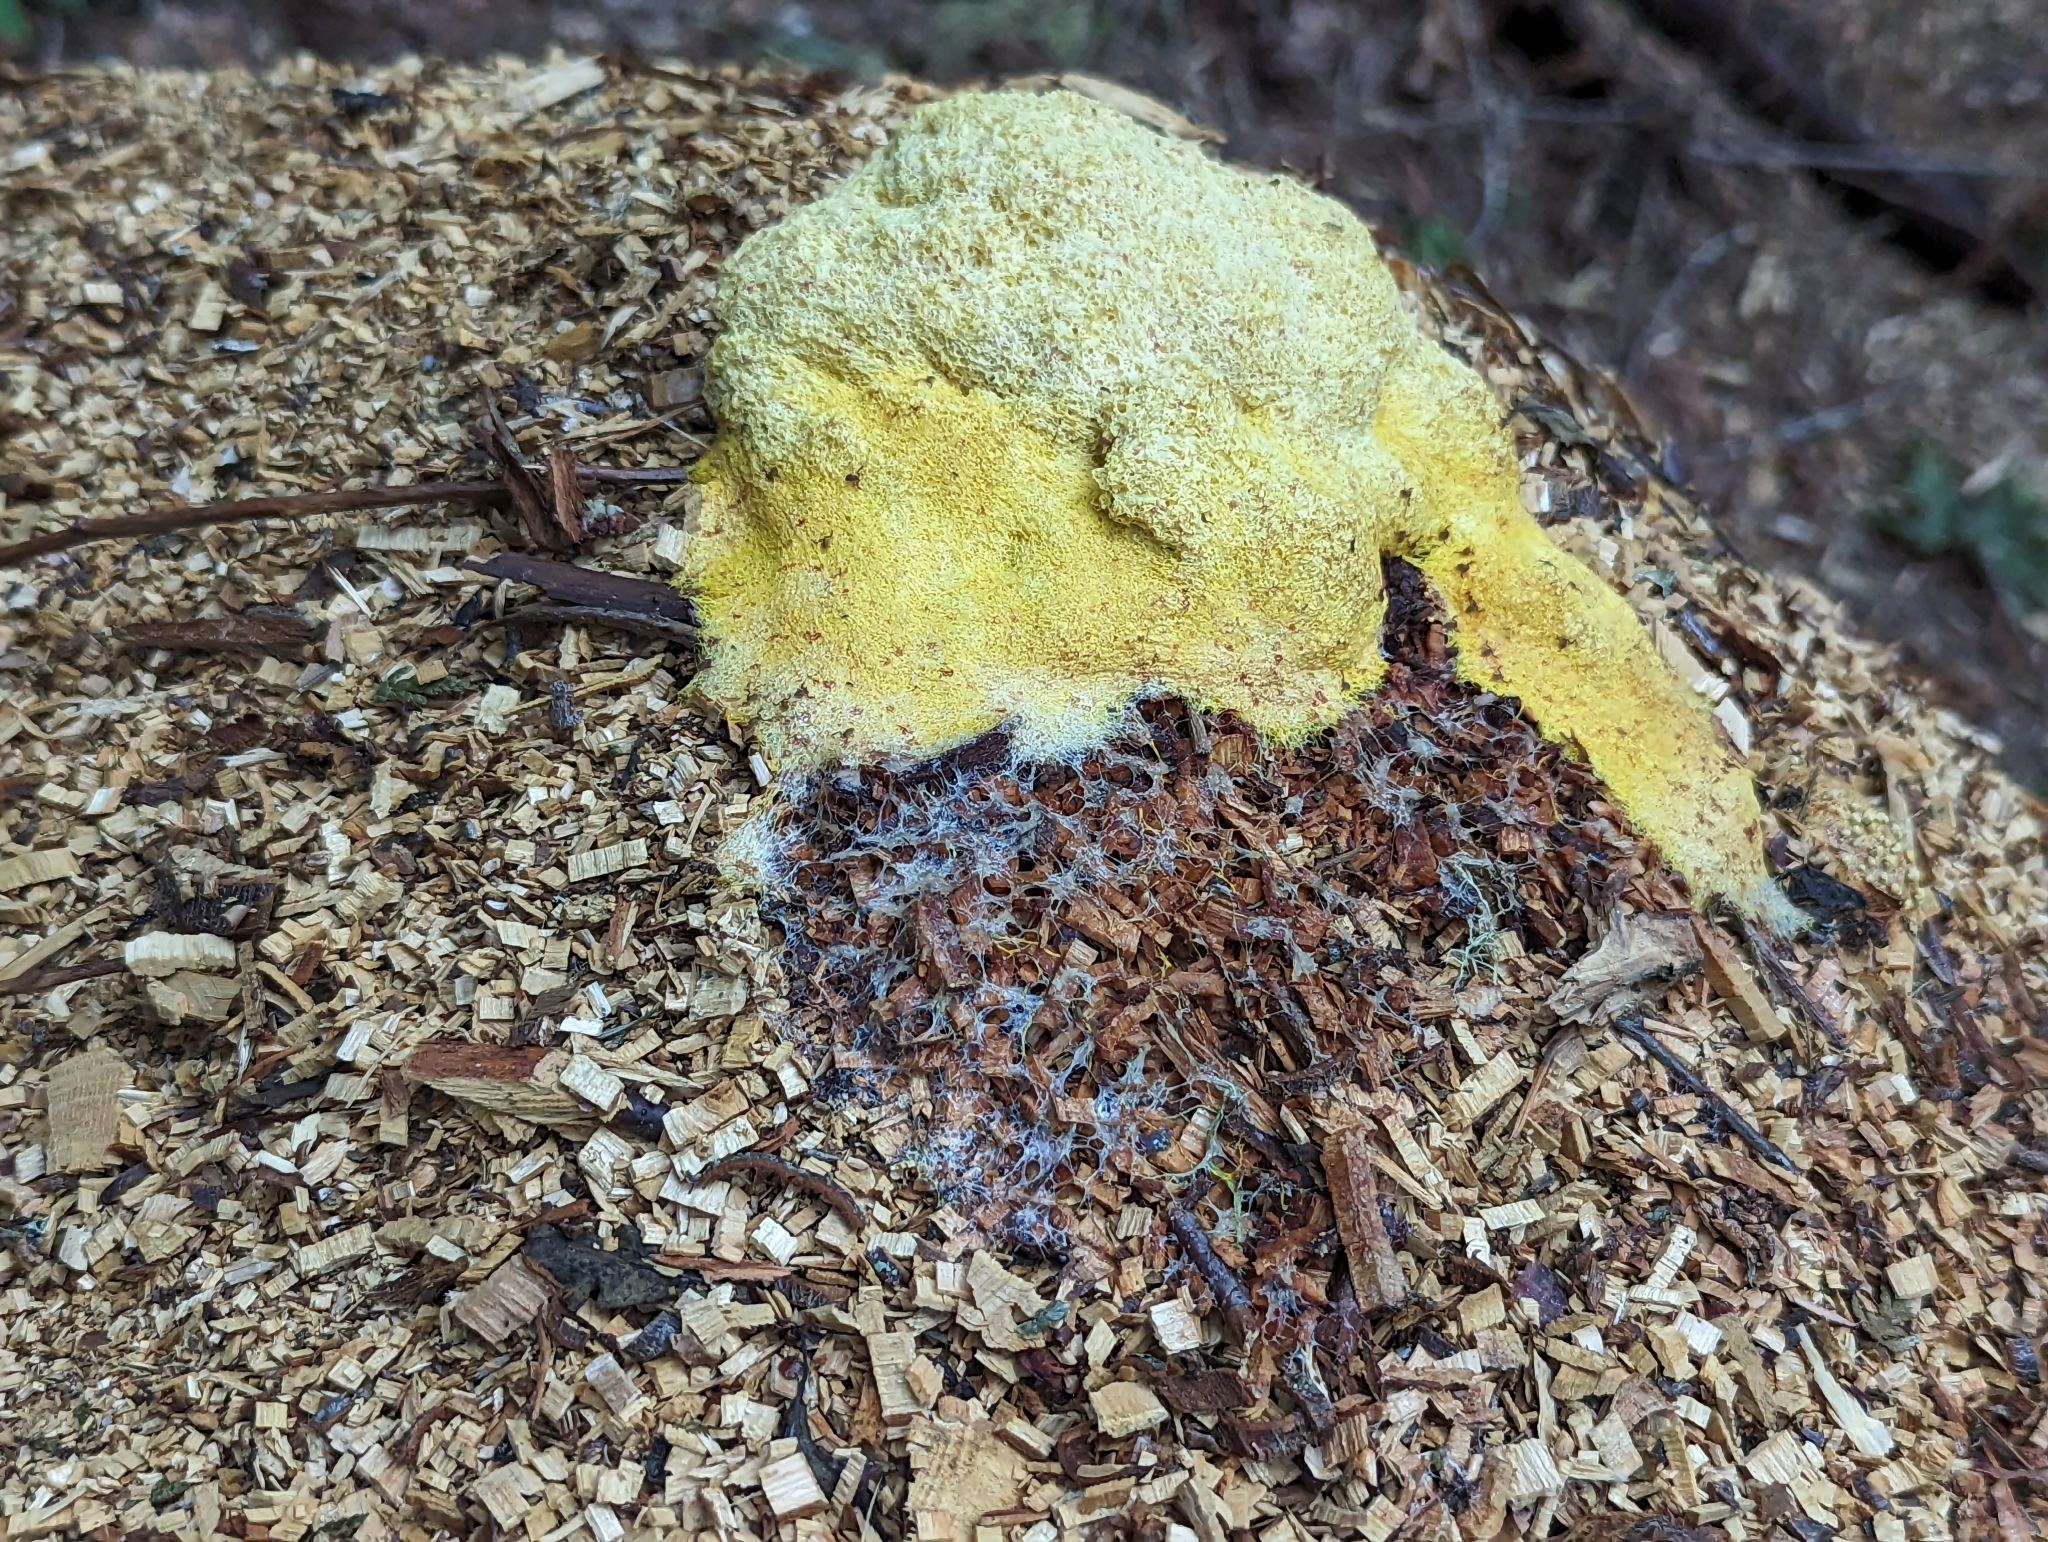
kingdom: Protozoa
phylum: Mycetozoa
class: Myxomycetes
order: Physarales
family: Physaraceae
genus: Fuligo
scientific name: Fuligo septica
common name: Dog vomit slime mold
